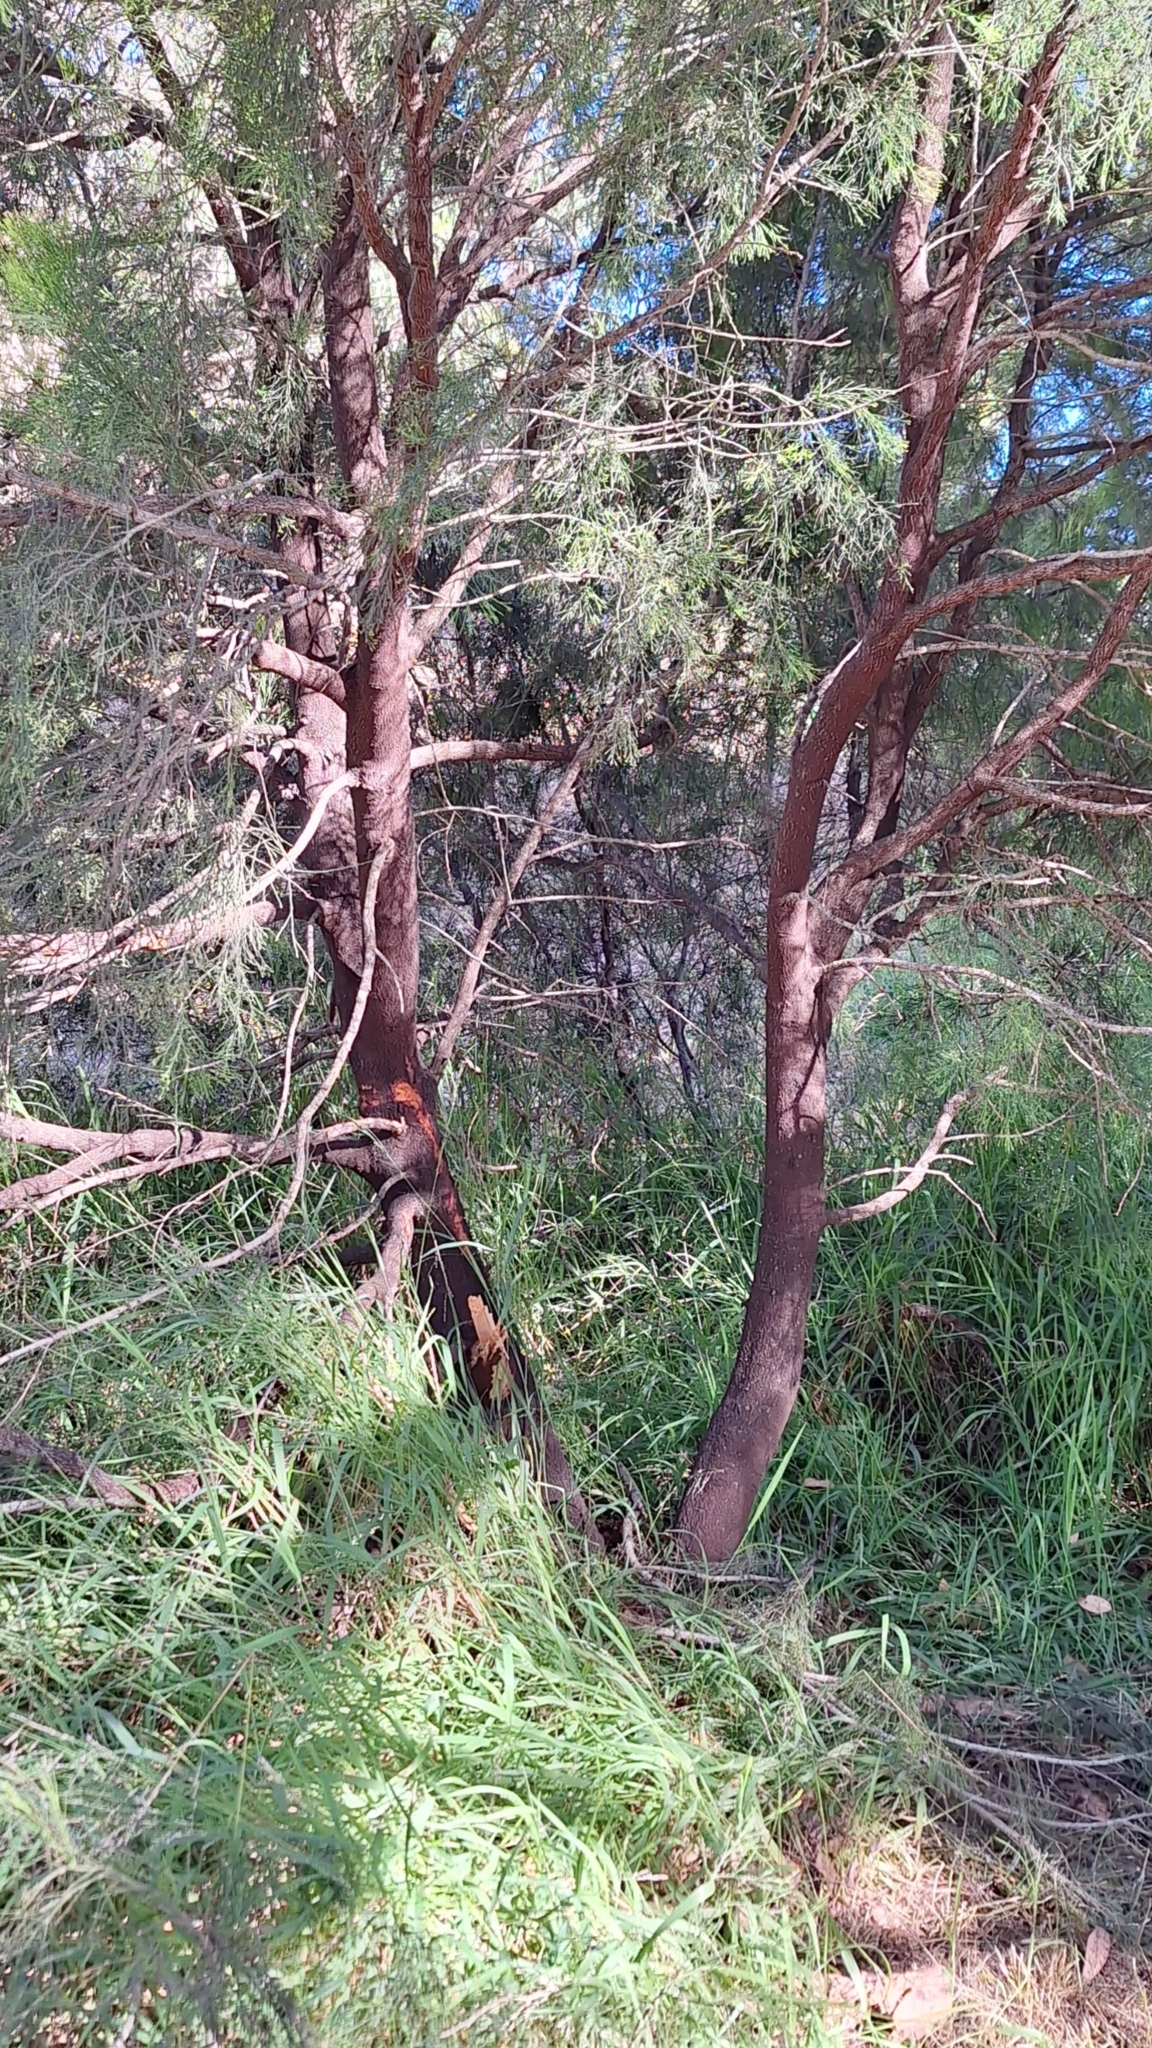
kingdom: Plantae
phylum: Tracheophyta
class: Magnoliopsida
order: Santalales
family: Santalaceae
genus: Exocarpos
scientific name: Exocarpos cupressiformis
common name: Cherry ballart
